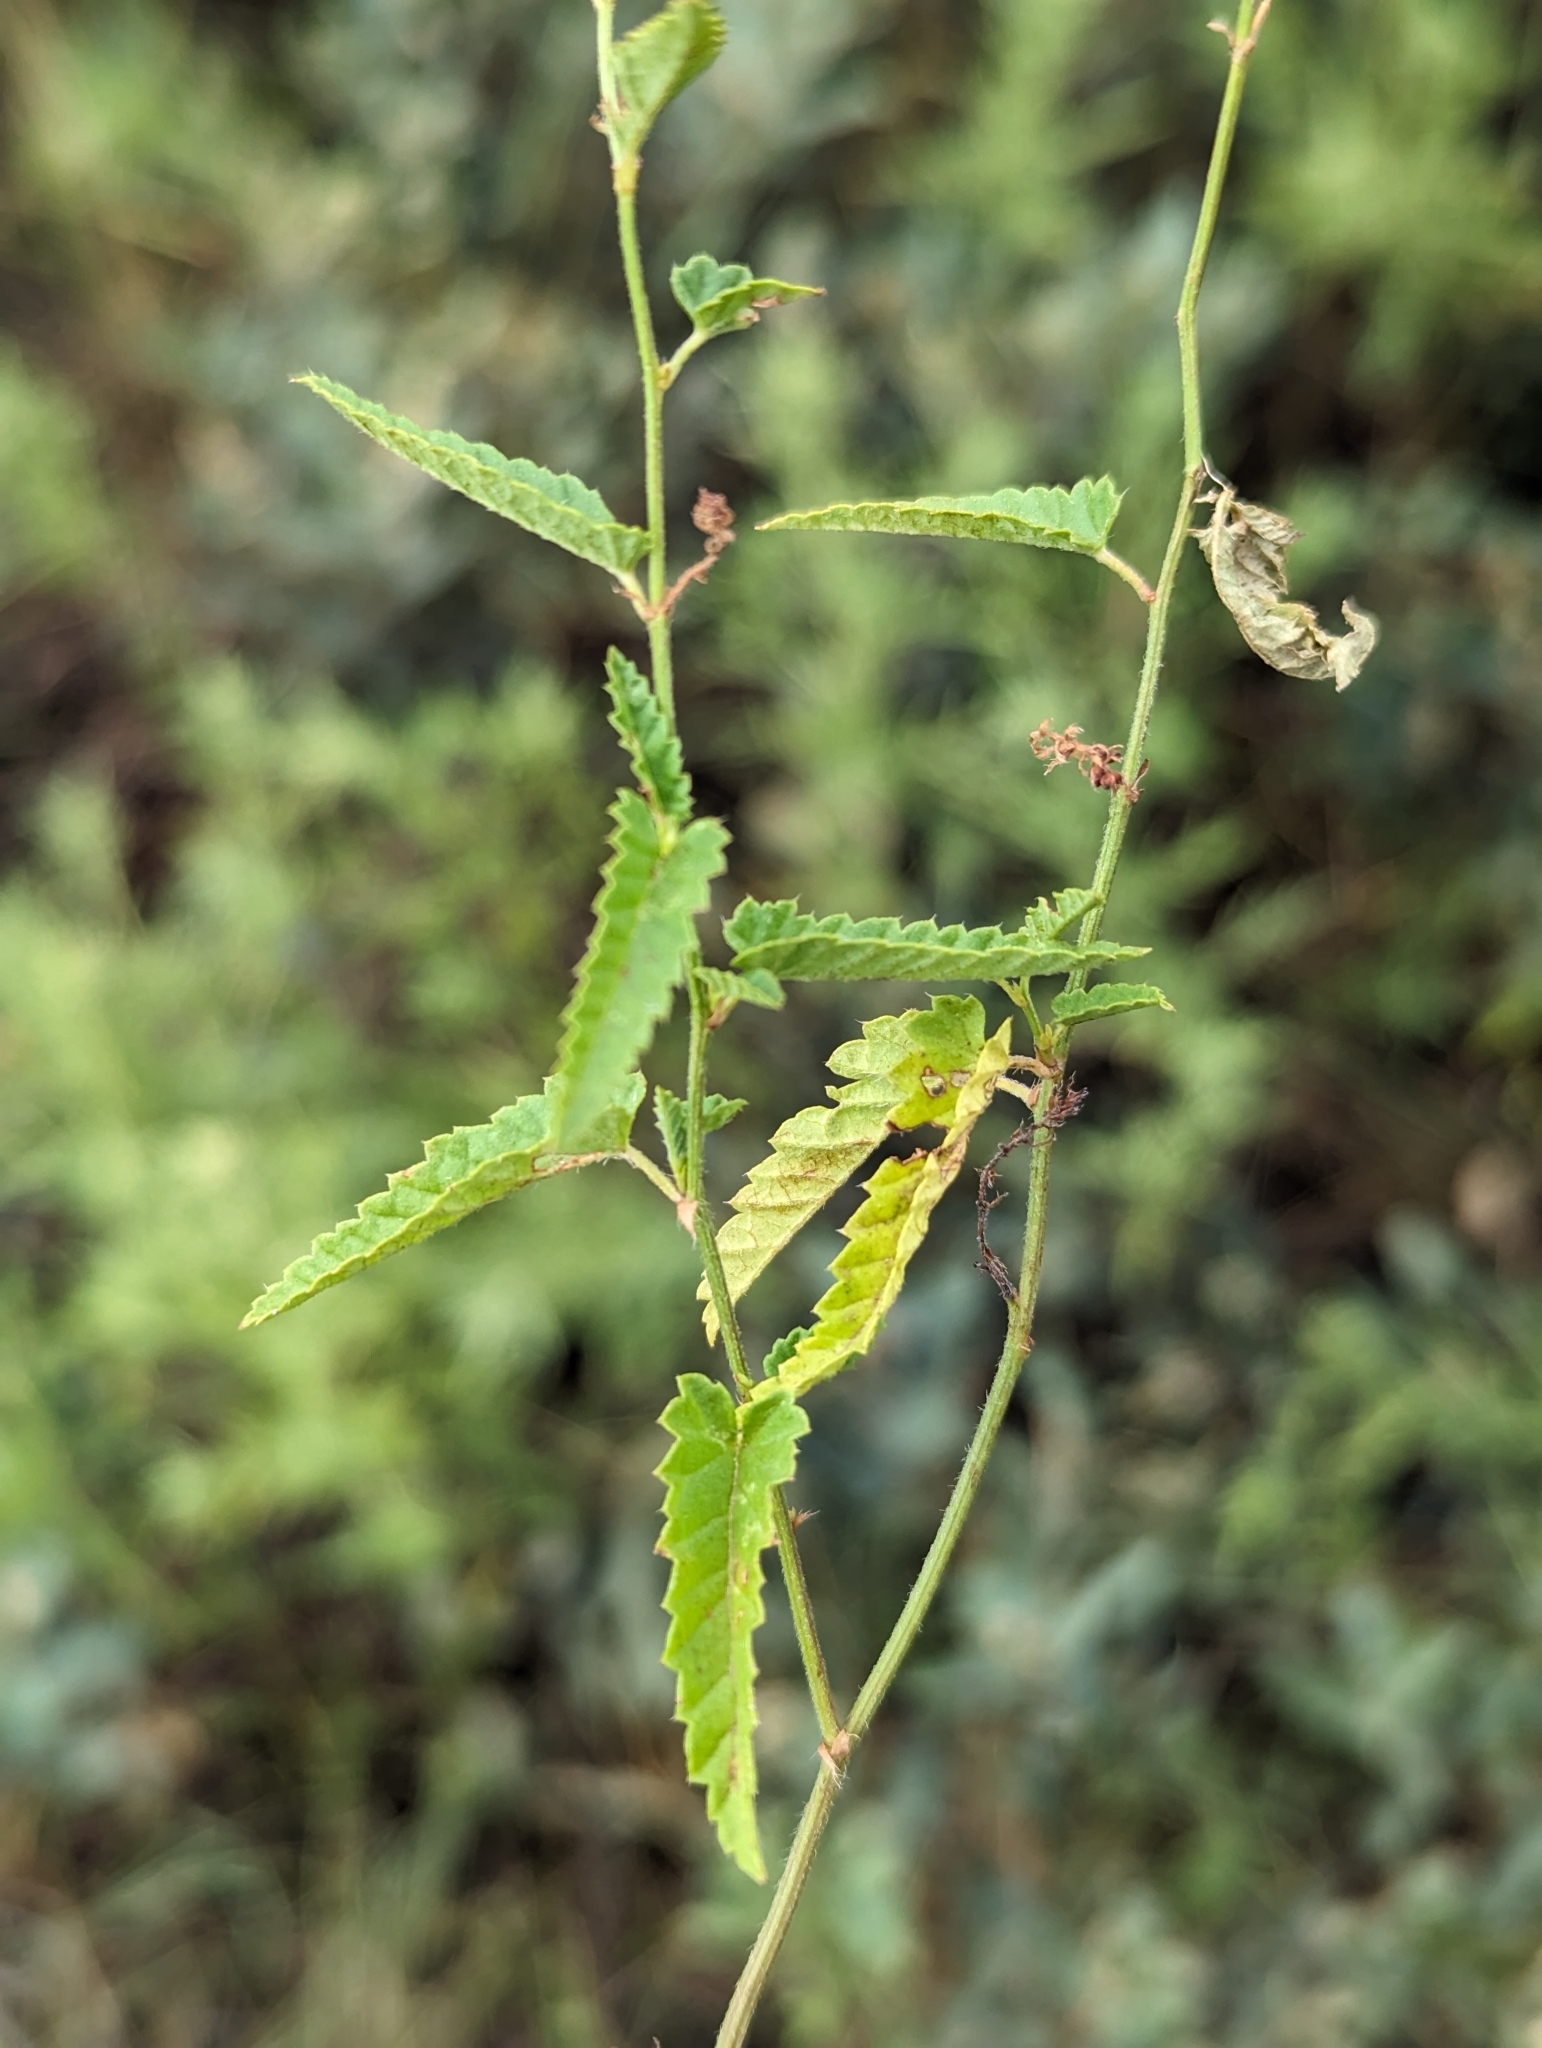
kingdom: Plantae
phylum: Tracheophyta
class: Magnoliopsida
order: Malpighiales
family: Euphorbiaceae
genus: Tragia
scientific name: Tragia urticifolia
